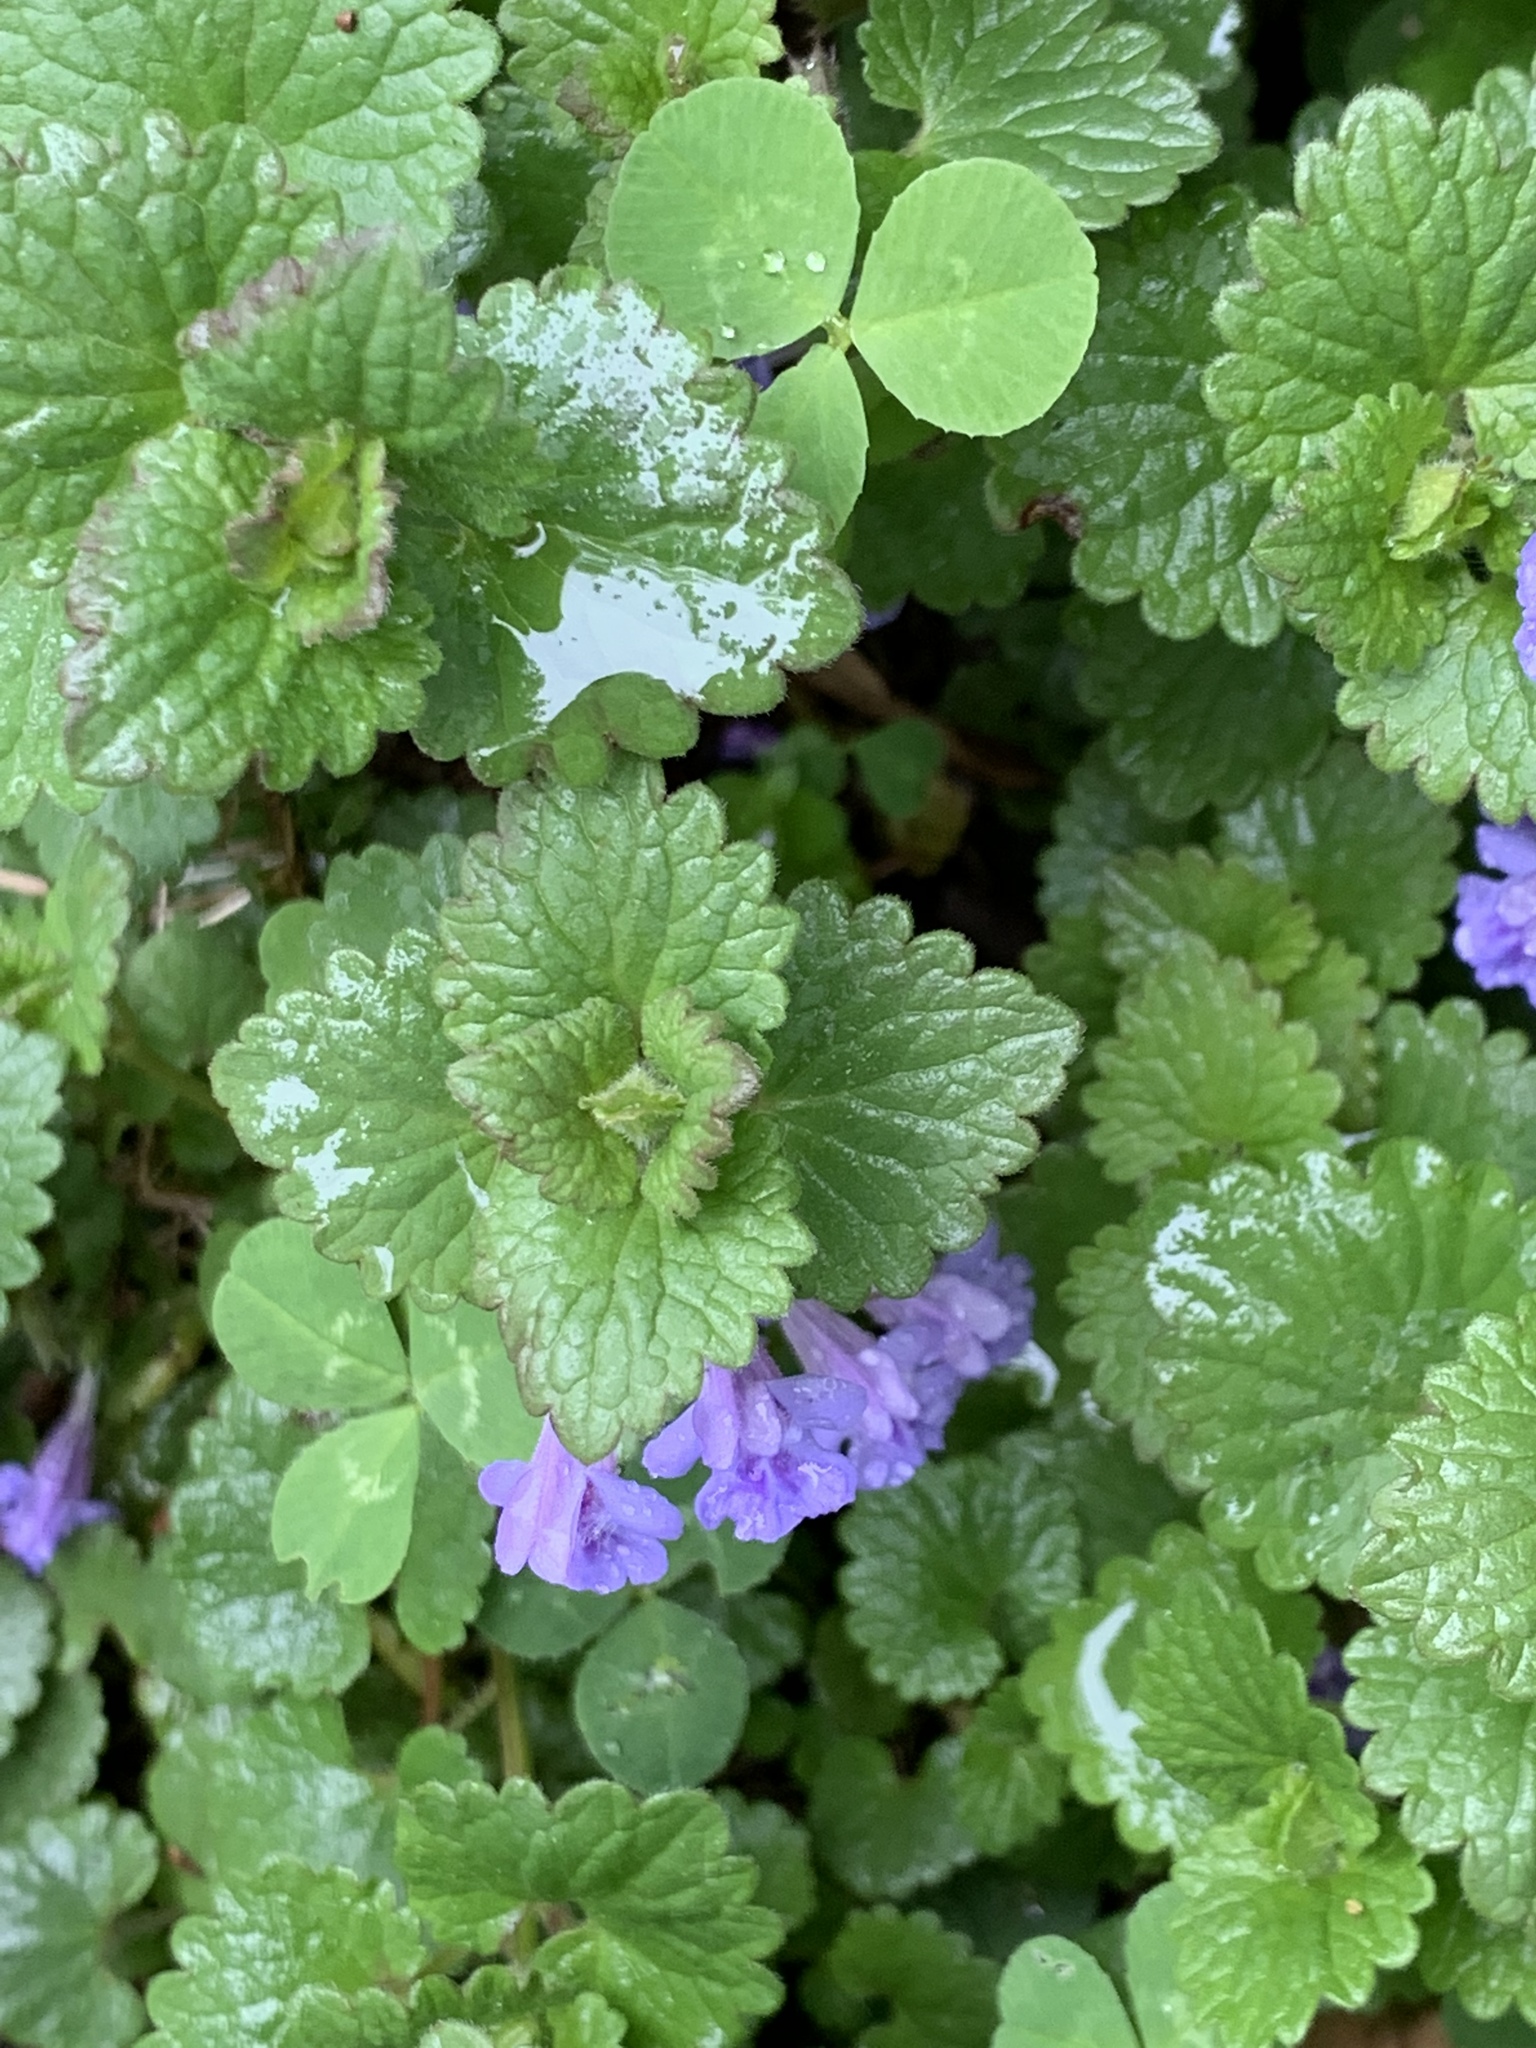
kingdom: Plantae
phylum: Tracheophyta
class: Magnoliopsida
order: Lamiales
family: Lamiaceae
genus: Glechoma
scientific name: Glechoma hederacea
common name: Ground ivy
